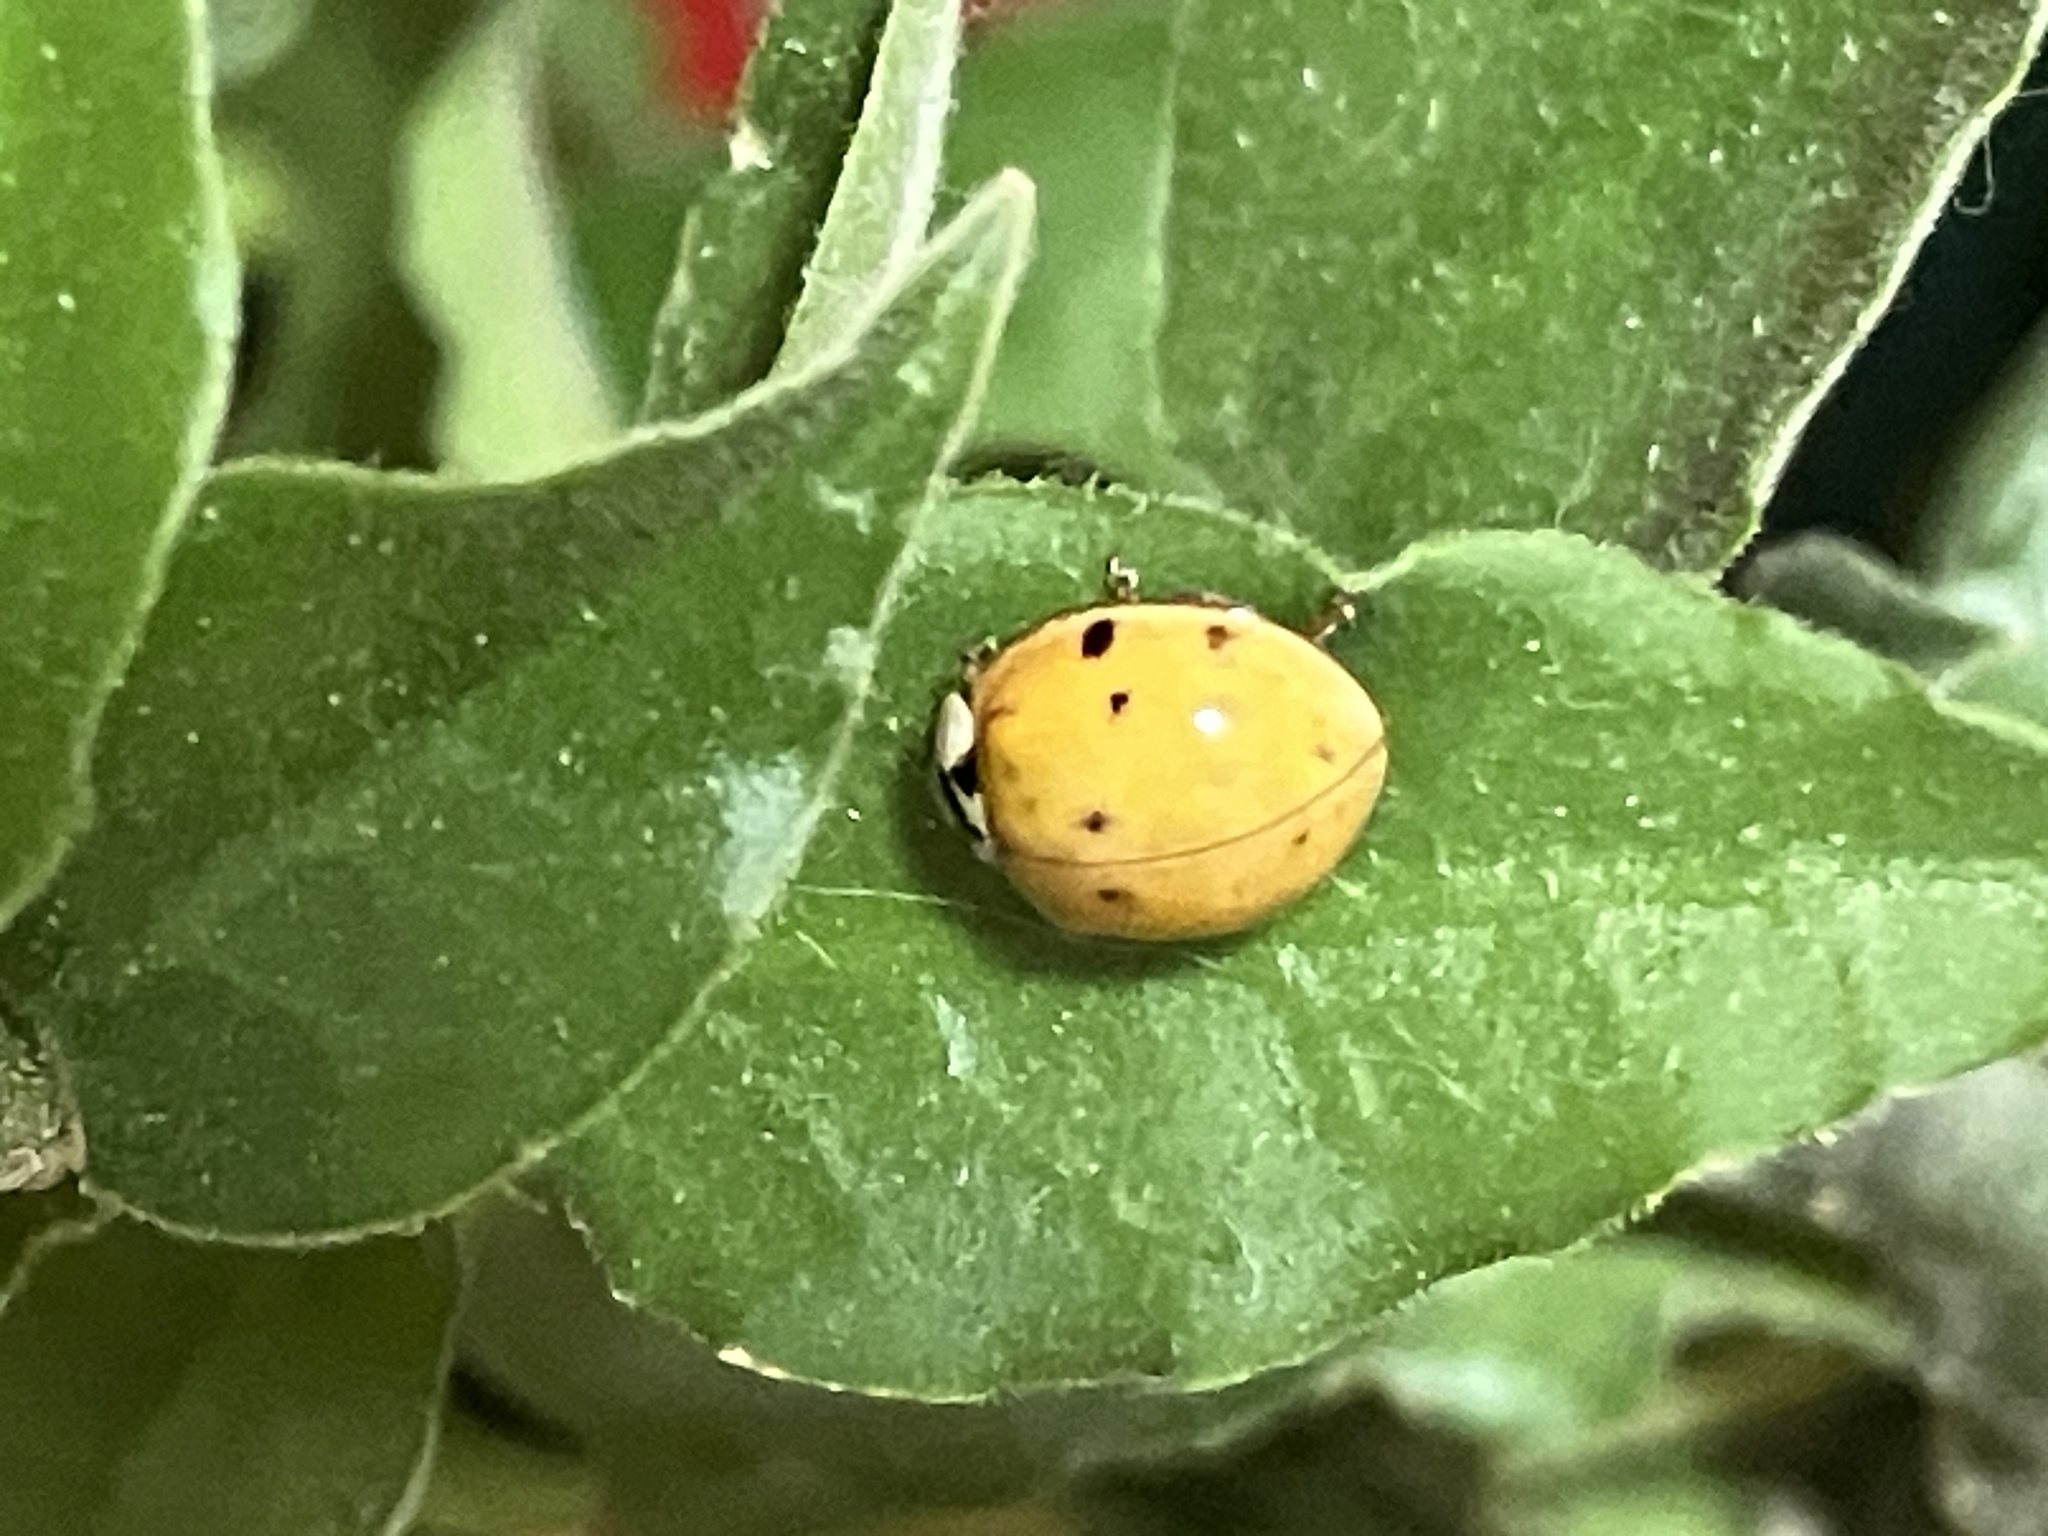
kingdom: Animalia
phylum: Arthropoda
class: Insecta
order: Coleoptera
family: Coccinellidae
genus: Harmonia
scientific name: Harmonia axyridis
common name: Harlequin ladybird
